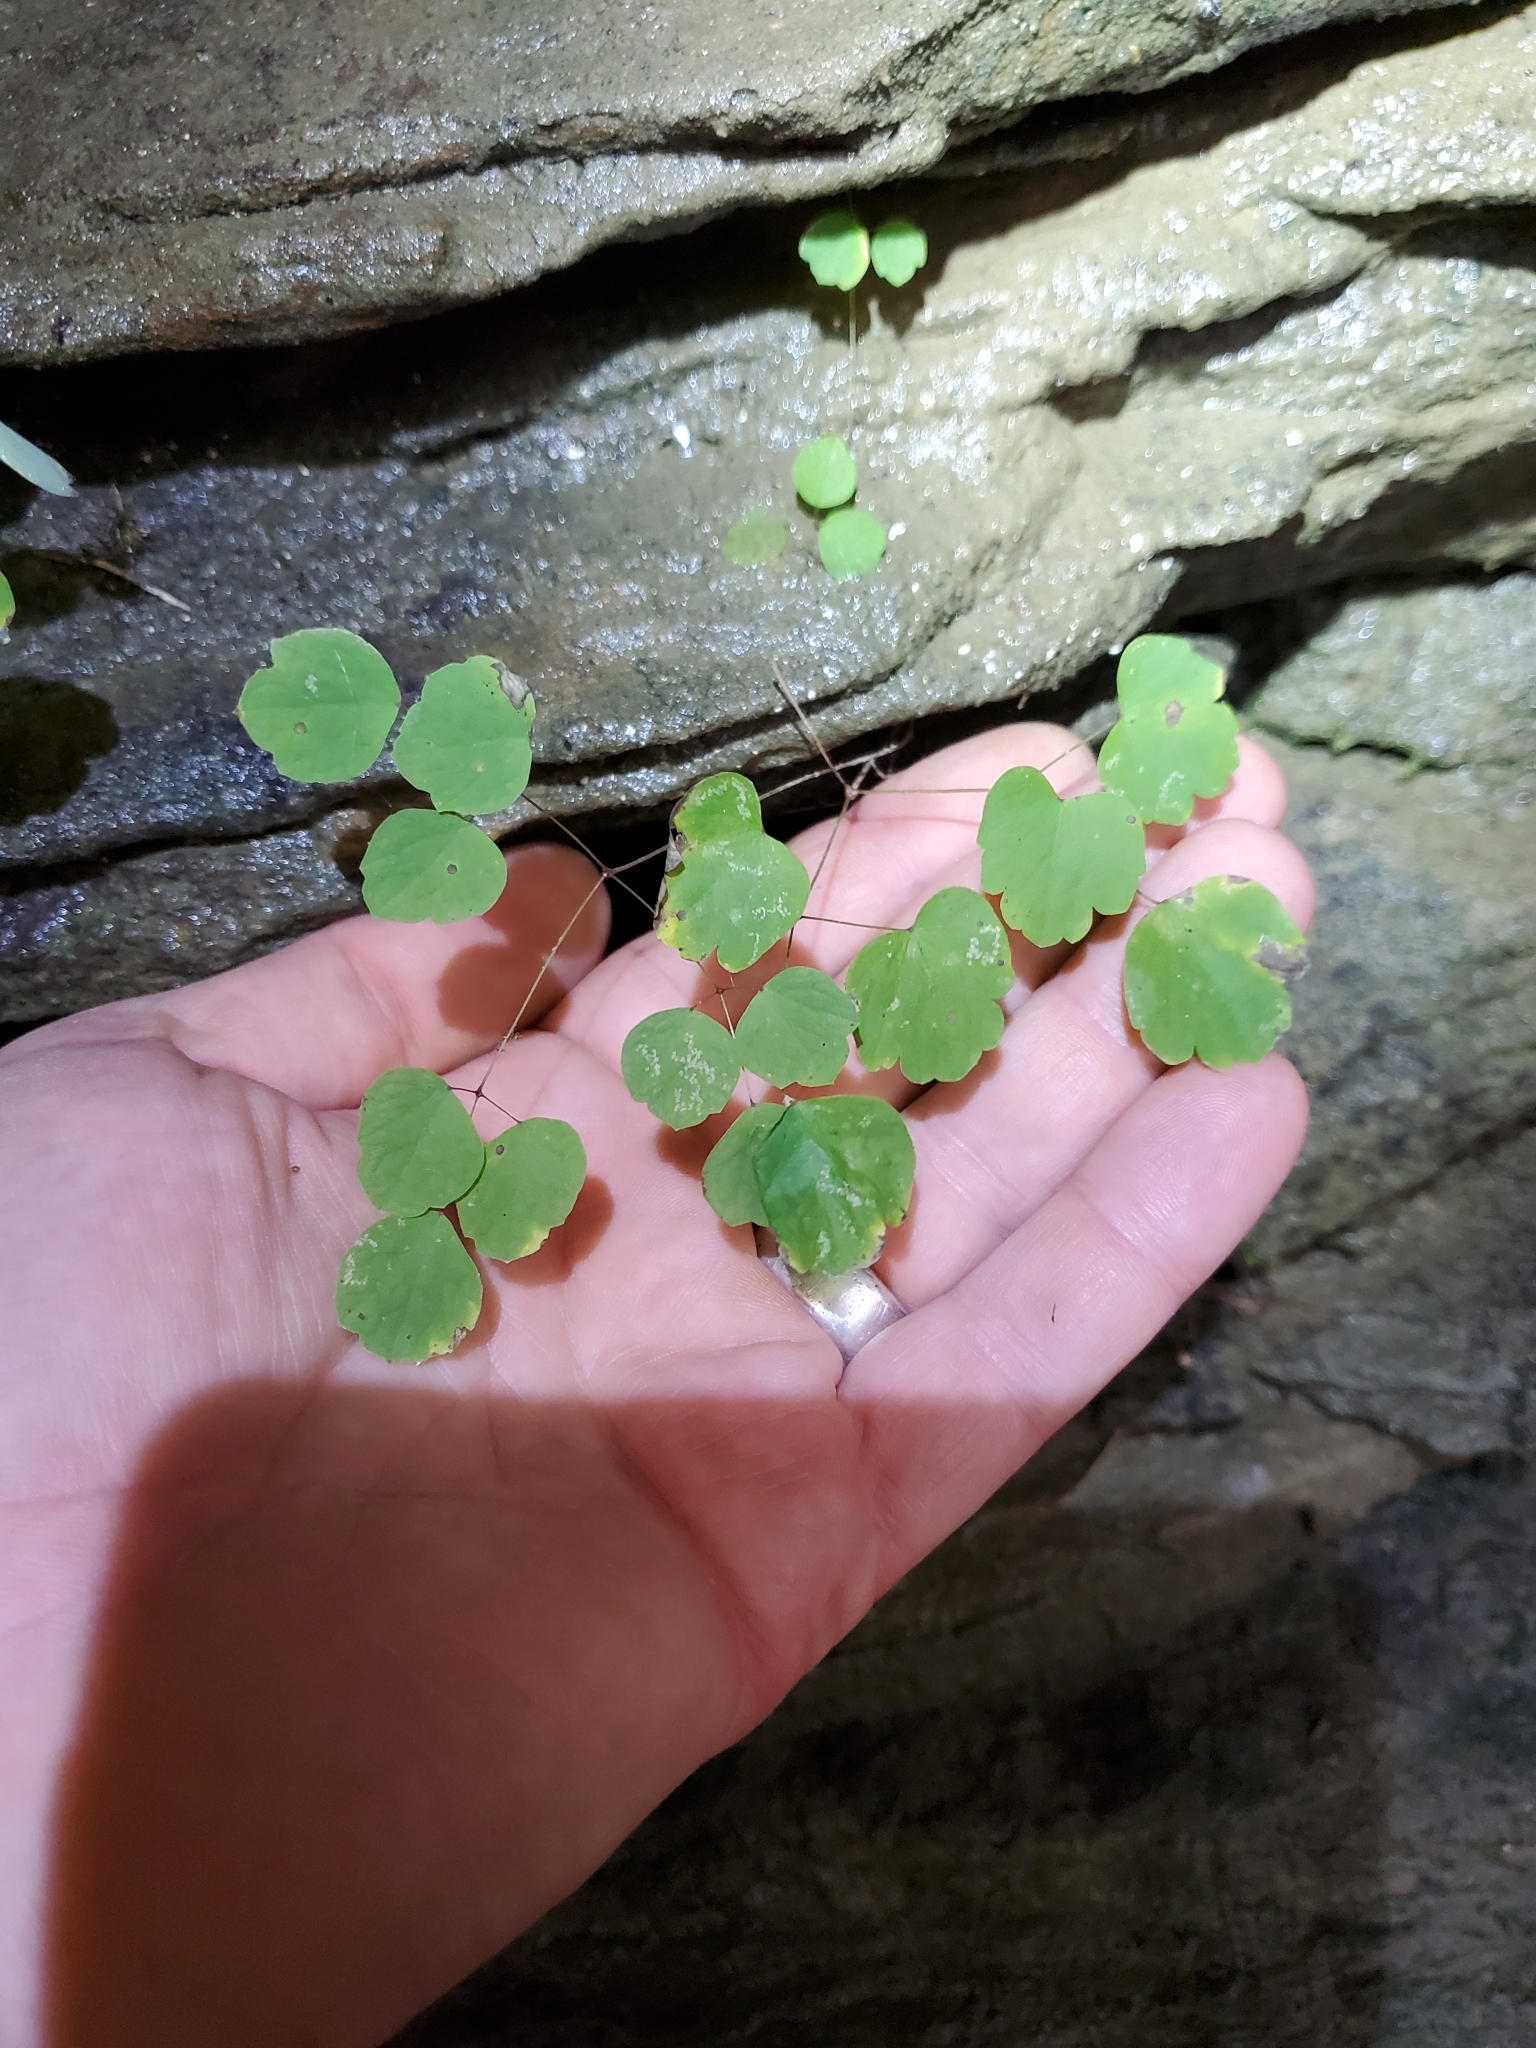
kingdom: Plantae
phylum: Tracheophyta
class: Magnoliopsida
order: Ranunculales
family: Ranunculaceae
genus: Thalictrum
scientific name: Thalictrum dioicum
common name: Early meadow-rue
